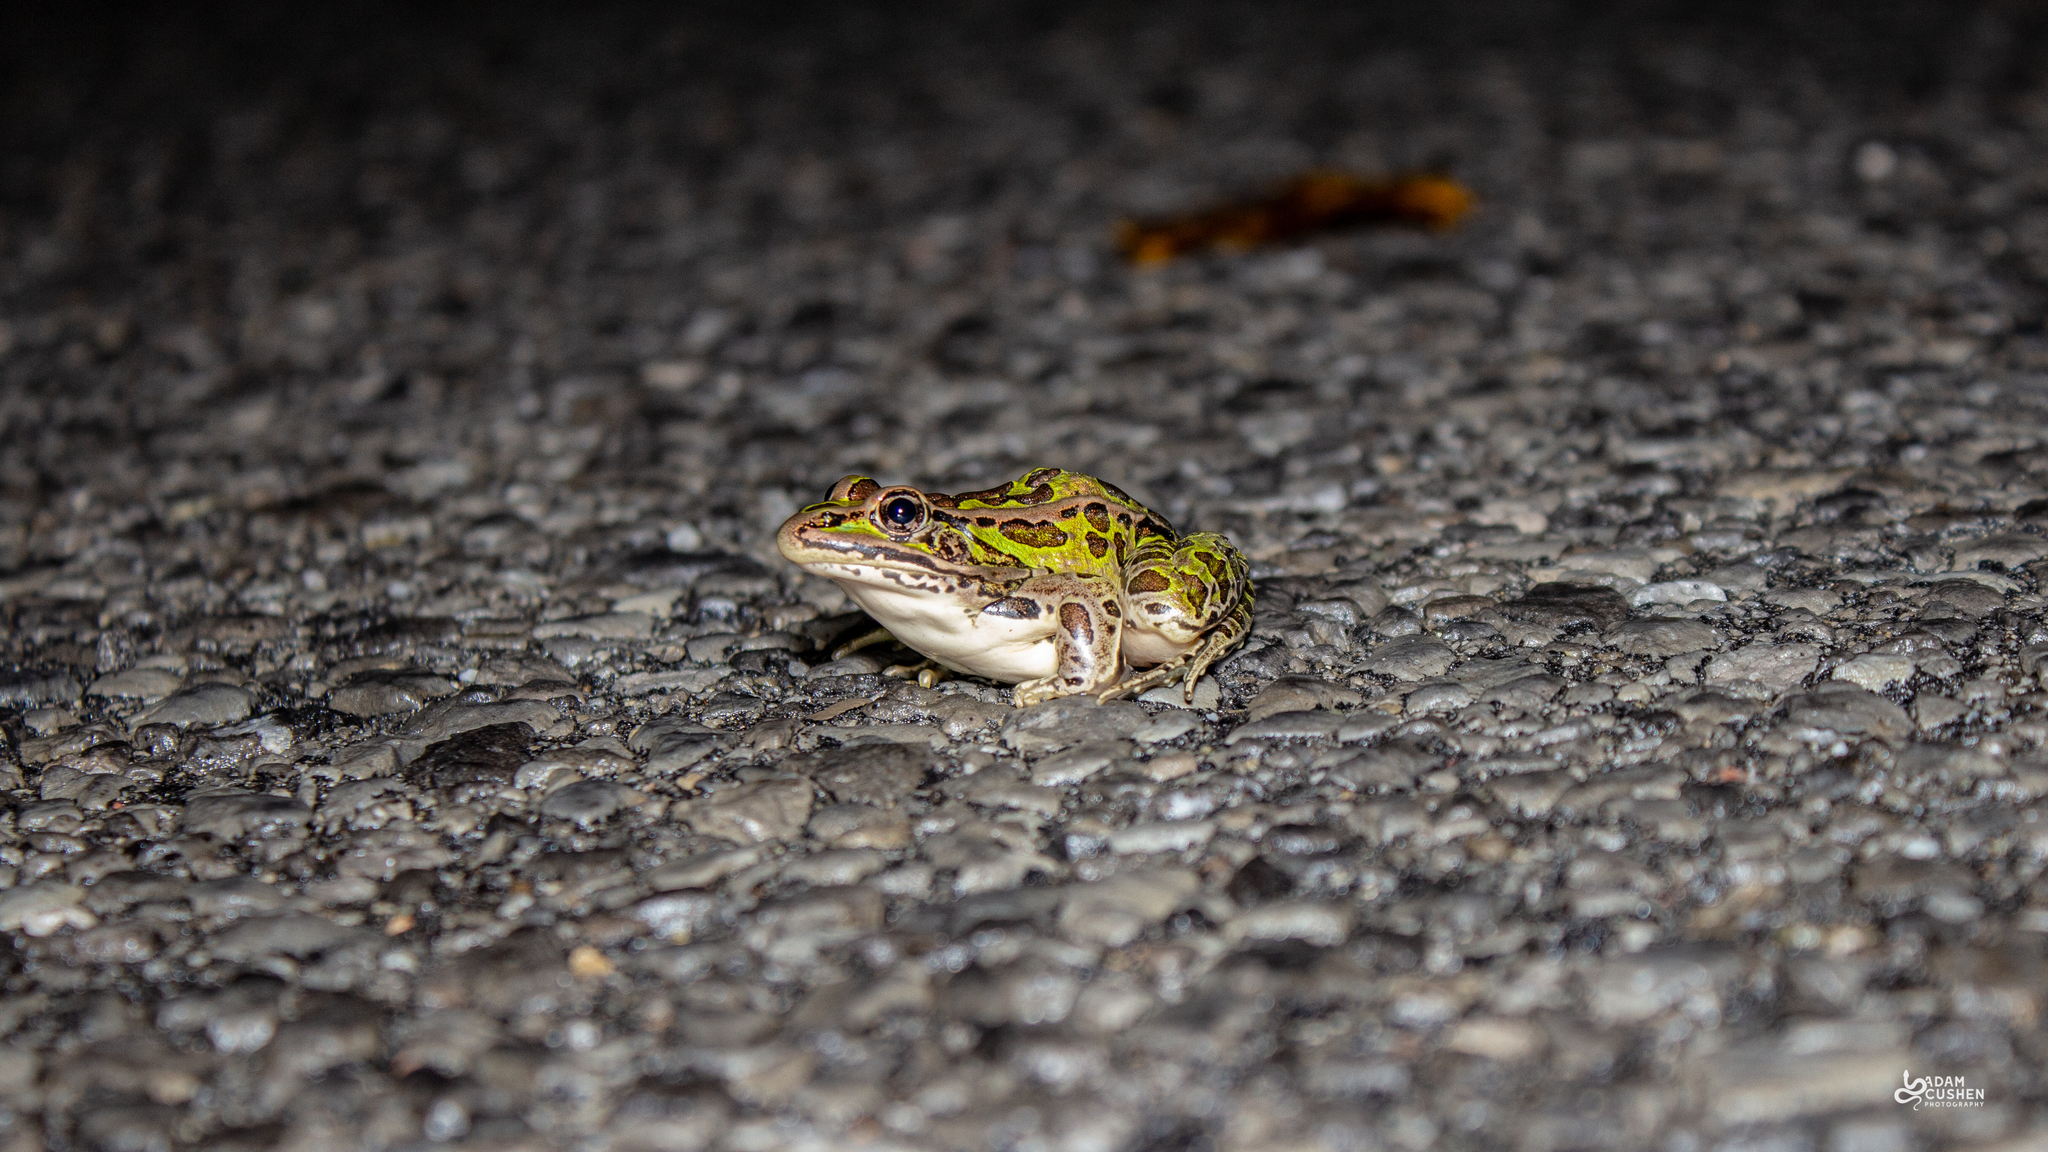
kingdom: Animalia
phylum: Chordata
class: Amphibia
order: Anura
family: Ranidae
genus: Lithobates
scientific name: Lithobates pipiens
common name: Northern leopard frog
